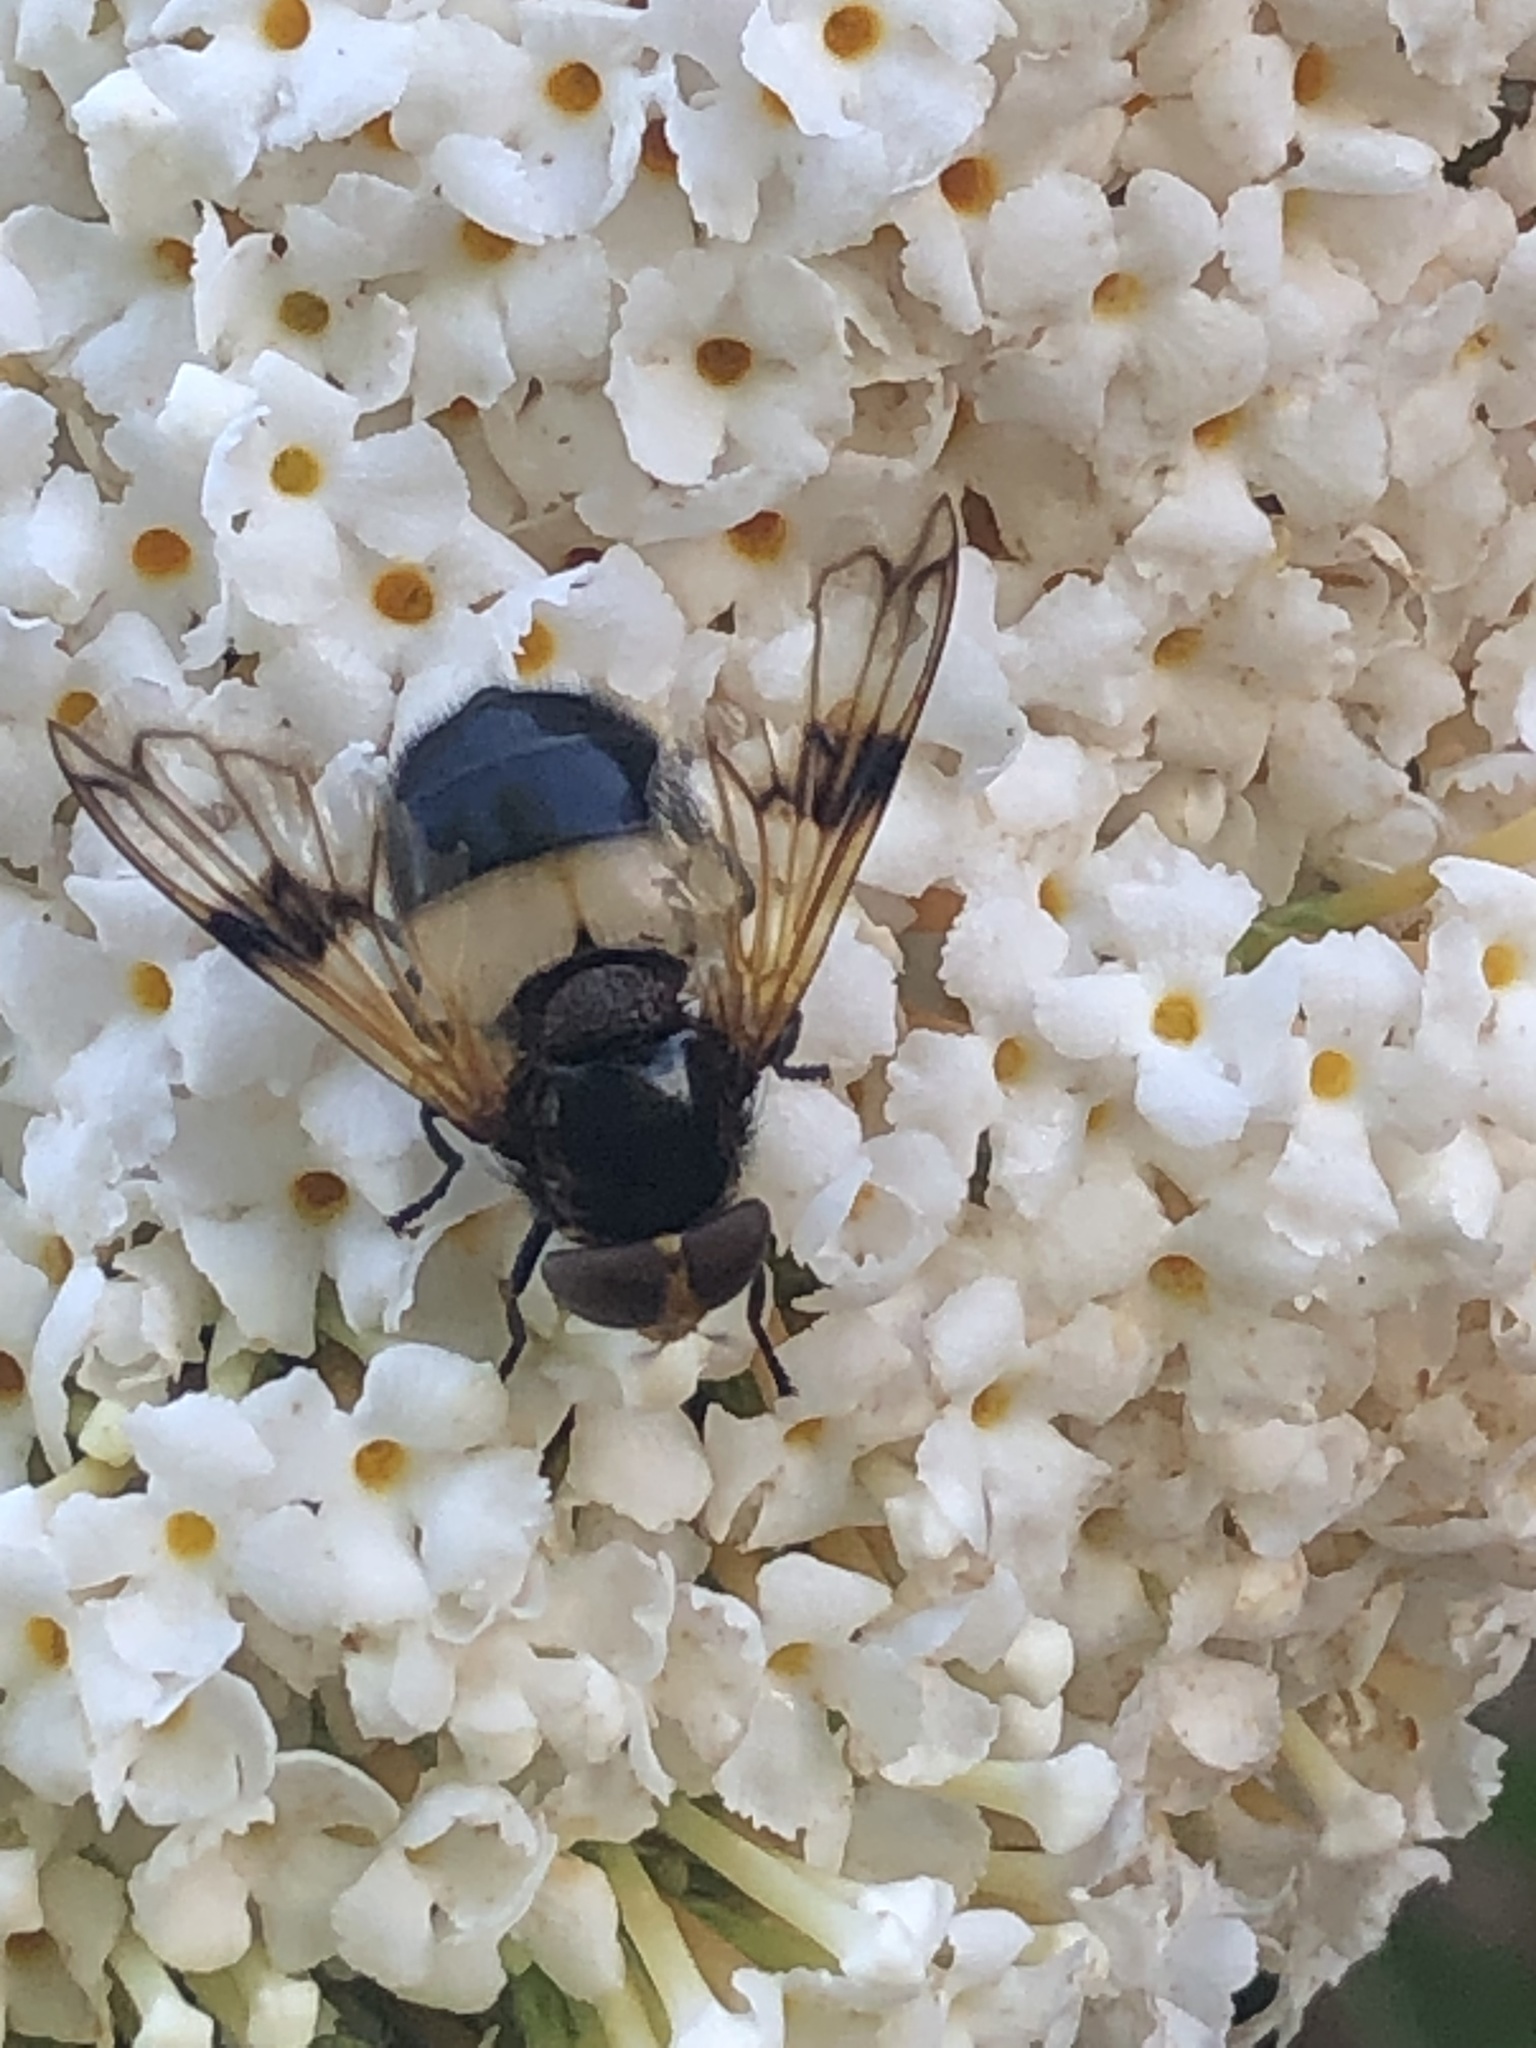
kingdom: Animalia
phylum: Arthropoda
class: Insecta
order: Diptera
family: Syrphidae
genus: Volucella
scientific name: Volucella pellucens
